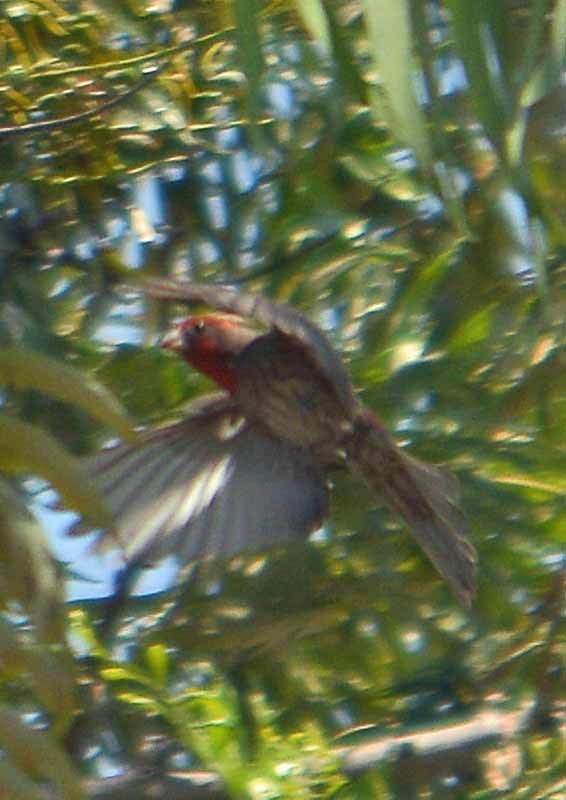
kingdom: Animalia
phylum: Chordata
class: Aves
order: Passeriformes
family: Fringillidae
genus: Haemorhous
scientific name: Haemorhous mexicanus
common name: House finch
